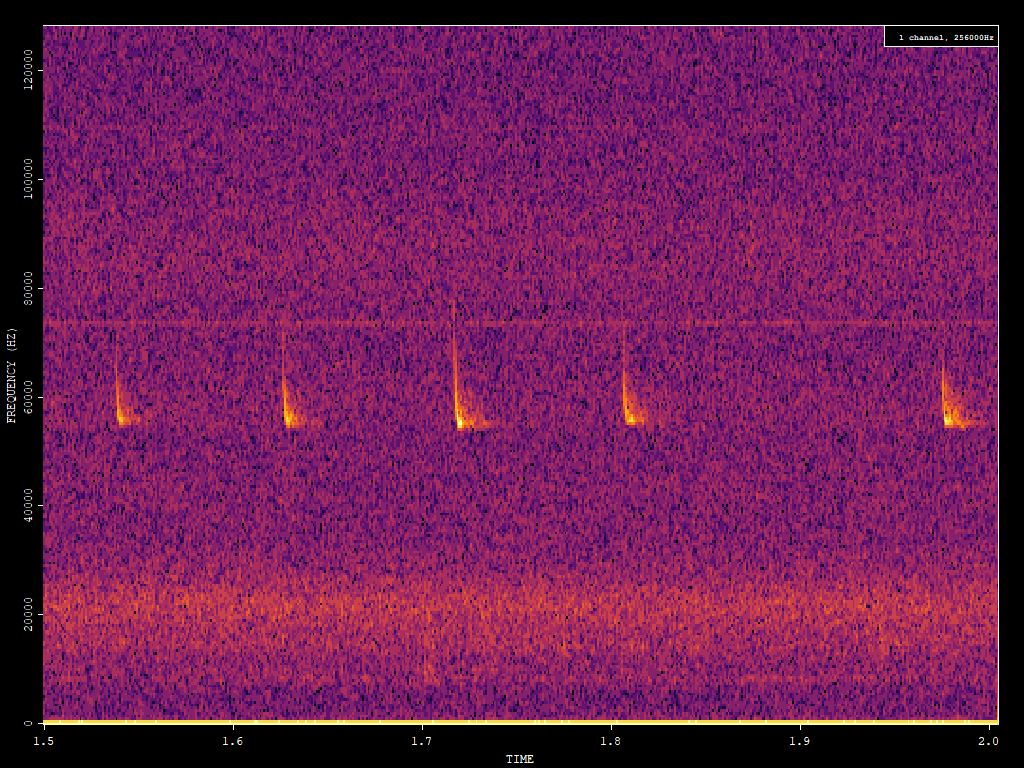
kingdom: Animalia
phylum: Chordata
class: Mammalia
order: Chiroptera
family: Vespertilionidae
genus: Pipistrellus
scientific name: Pipistrellus pygmaeus
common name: Soprano pipistrelle
